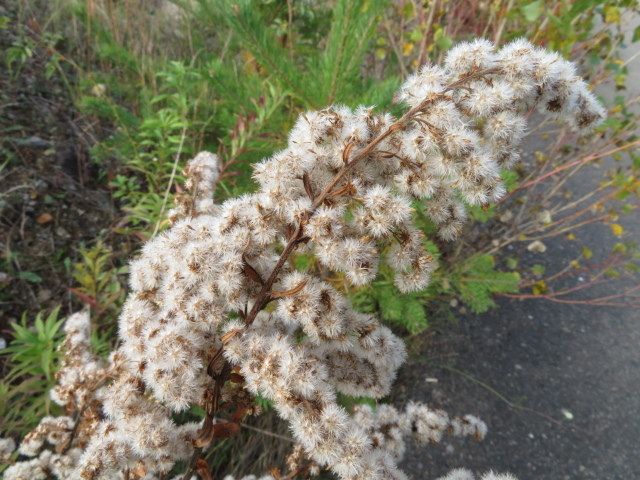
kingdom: Plantae
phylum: Tracheophyta
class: Magnoliopsida
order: Asterales
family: Asteraceae
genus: Solidago
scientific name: Solidago gigantea
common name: Giant goldenrod
